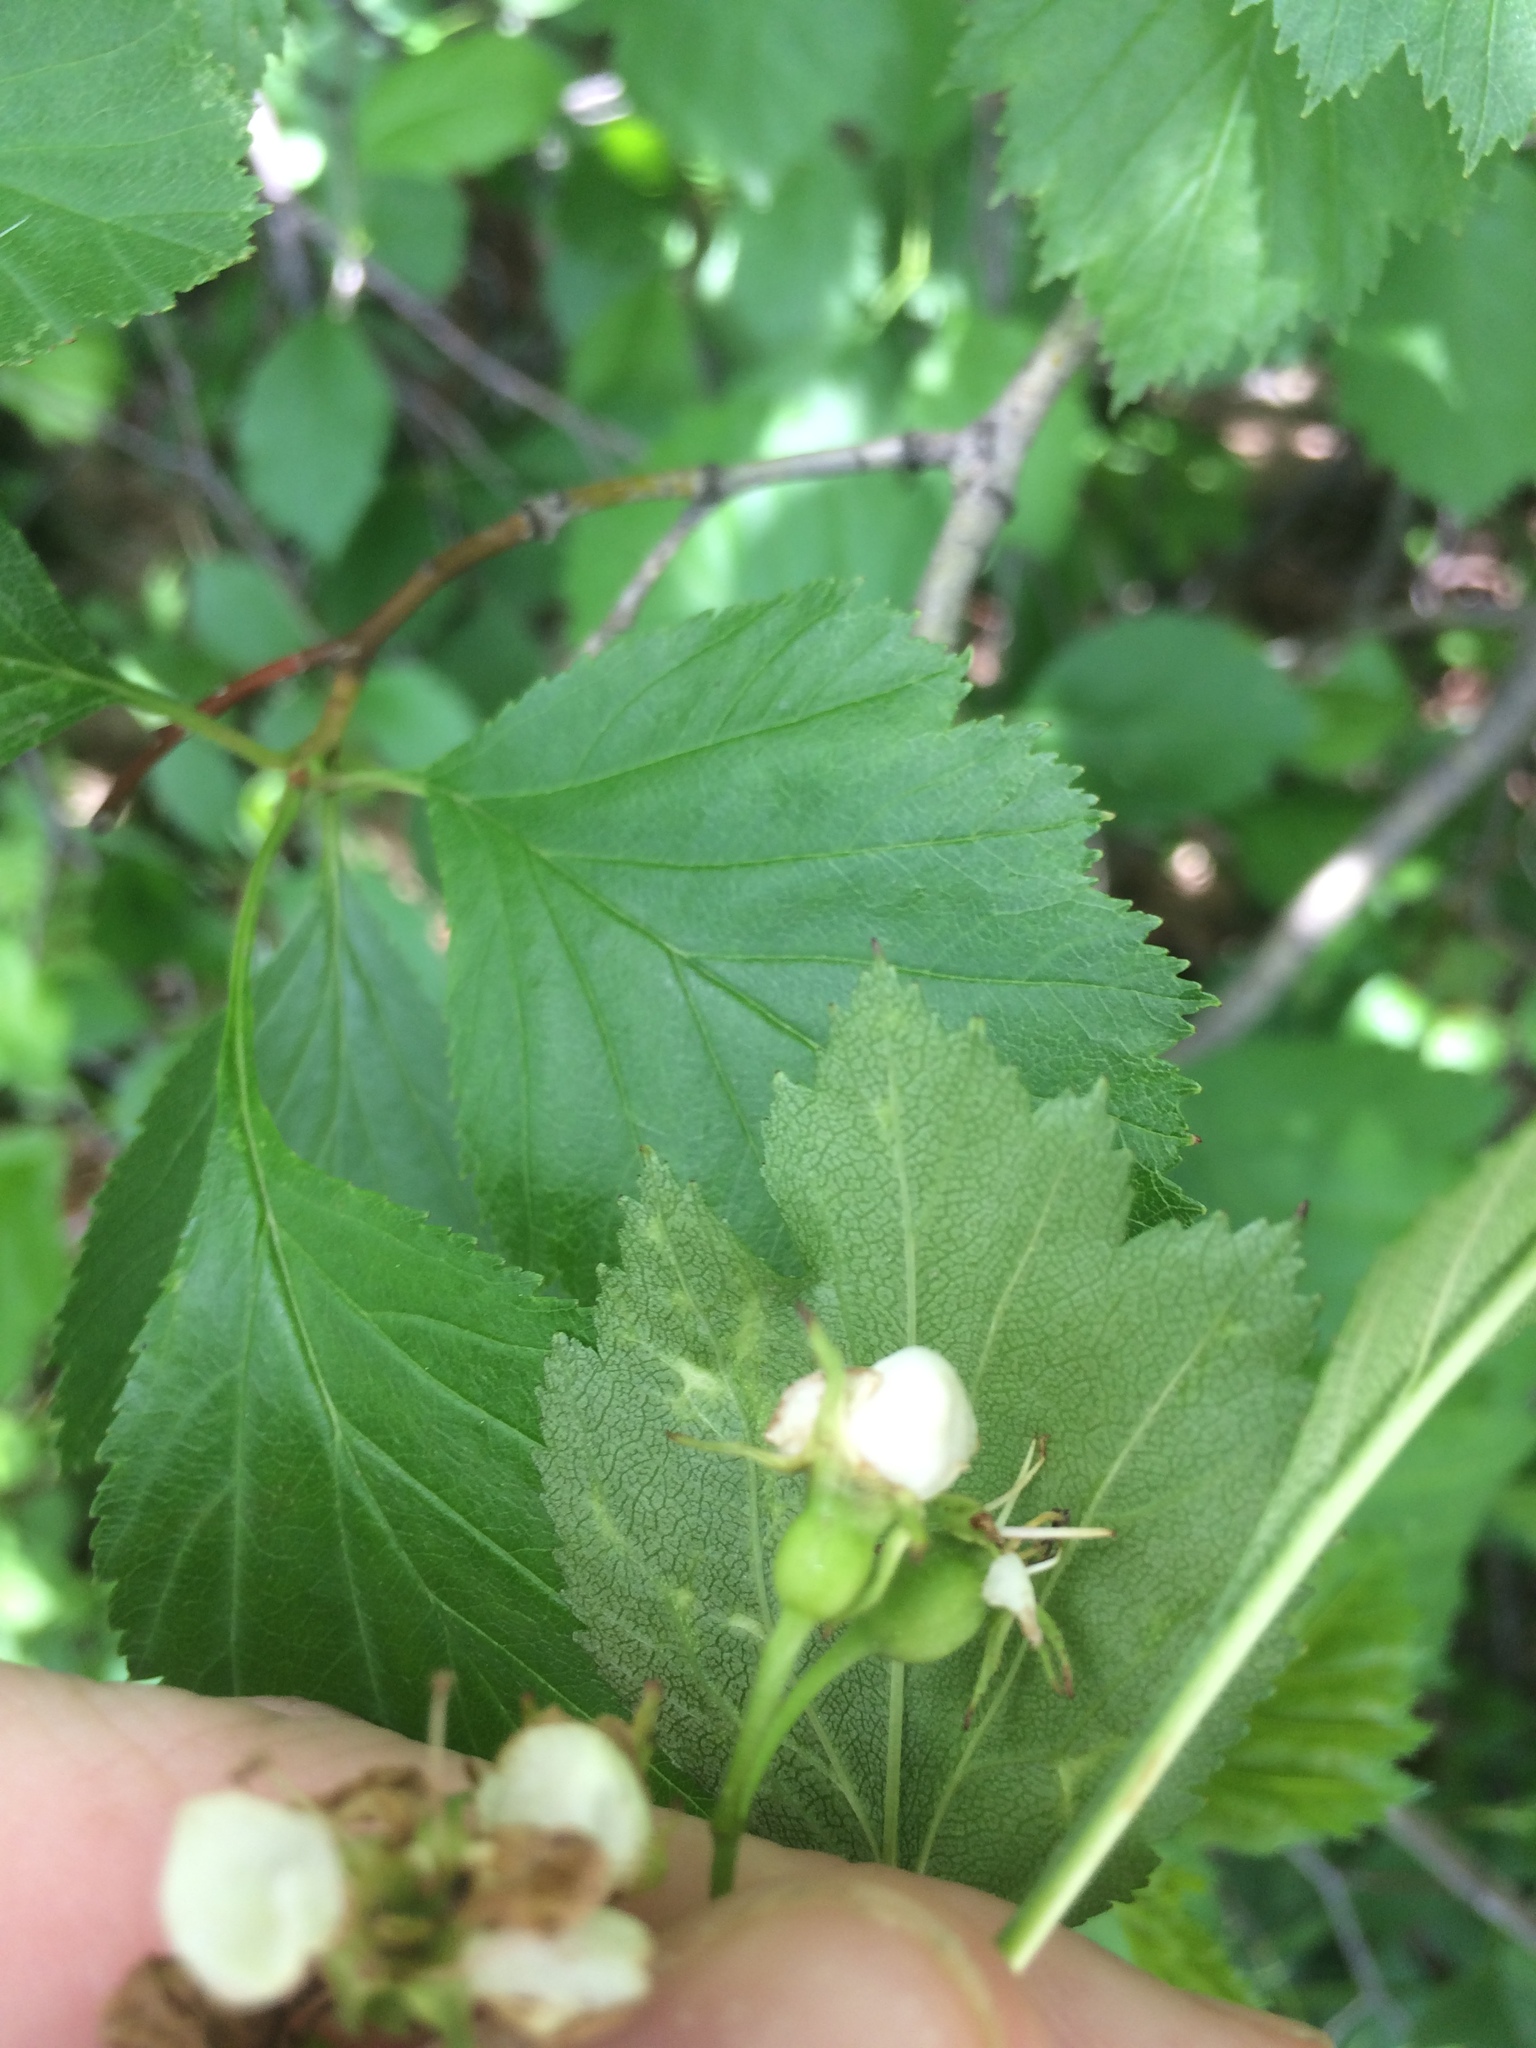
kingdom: Plantae
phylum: Tracheophyta
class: Magnoliopsida
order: Rosales
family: Rosaceae
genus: Crataegus
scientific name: Crataegus chrysocarpa
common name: Fire-berry hawthorn
